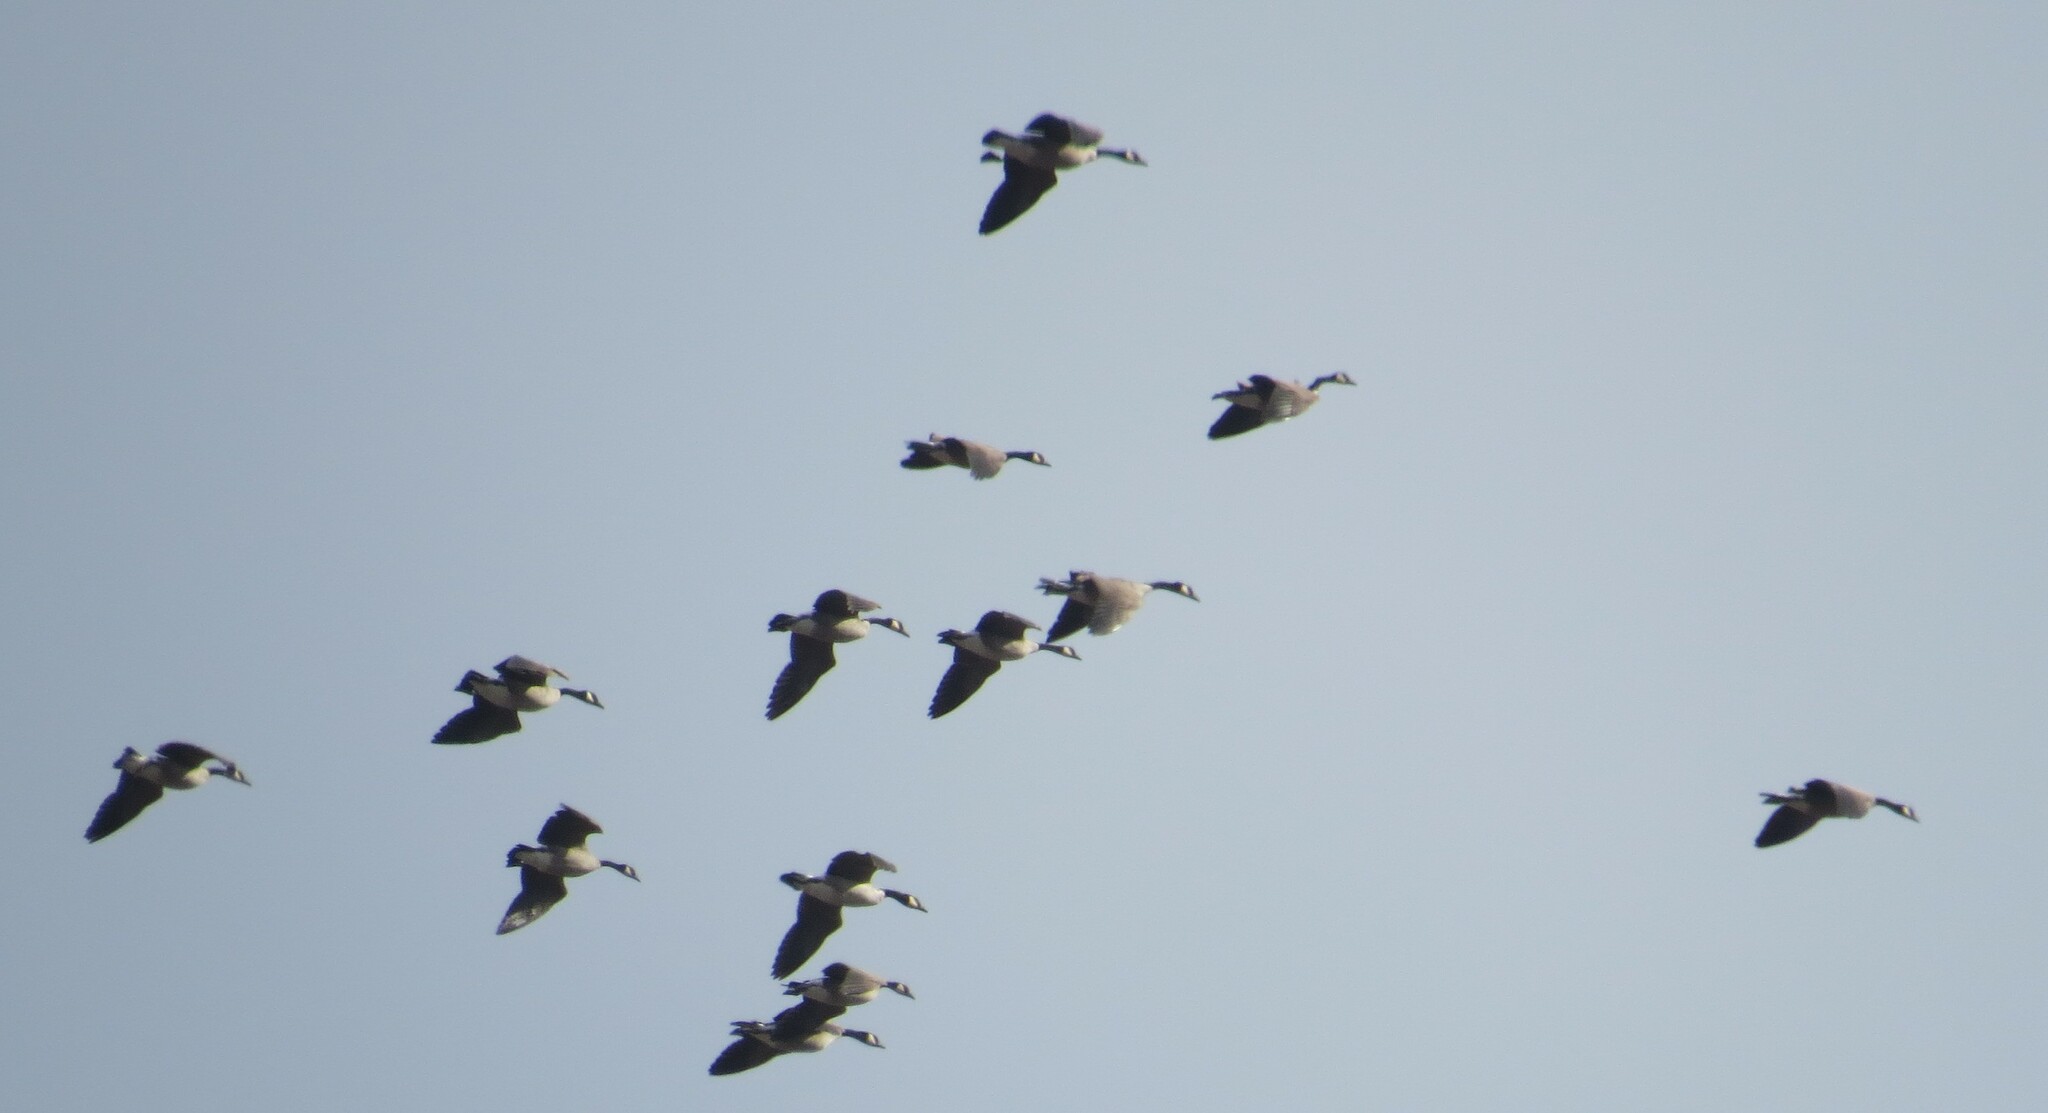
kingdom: Animalia
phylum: Chordata
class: Aves
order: Anseriformes
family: Anatidae
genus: Branta
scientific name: Branta canadensis
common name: Canada goose
